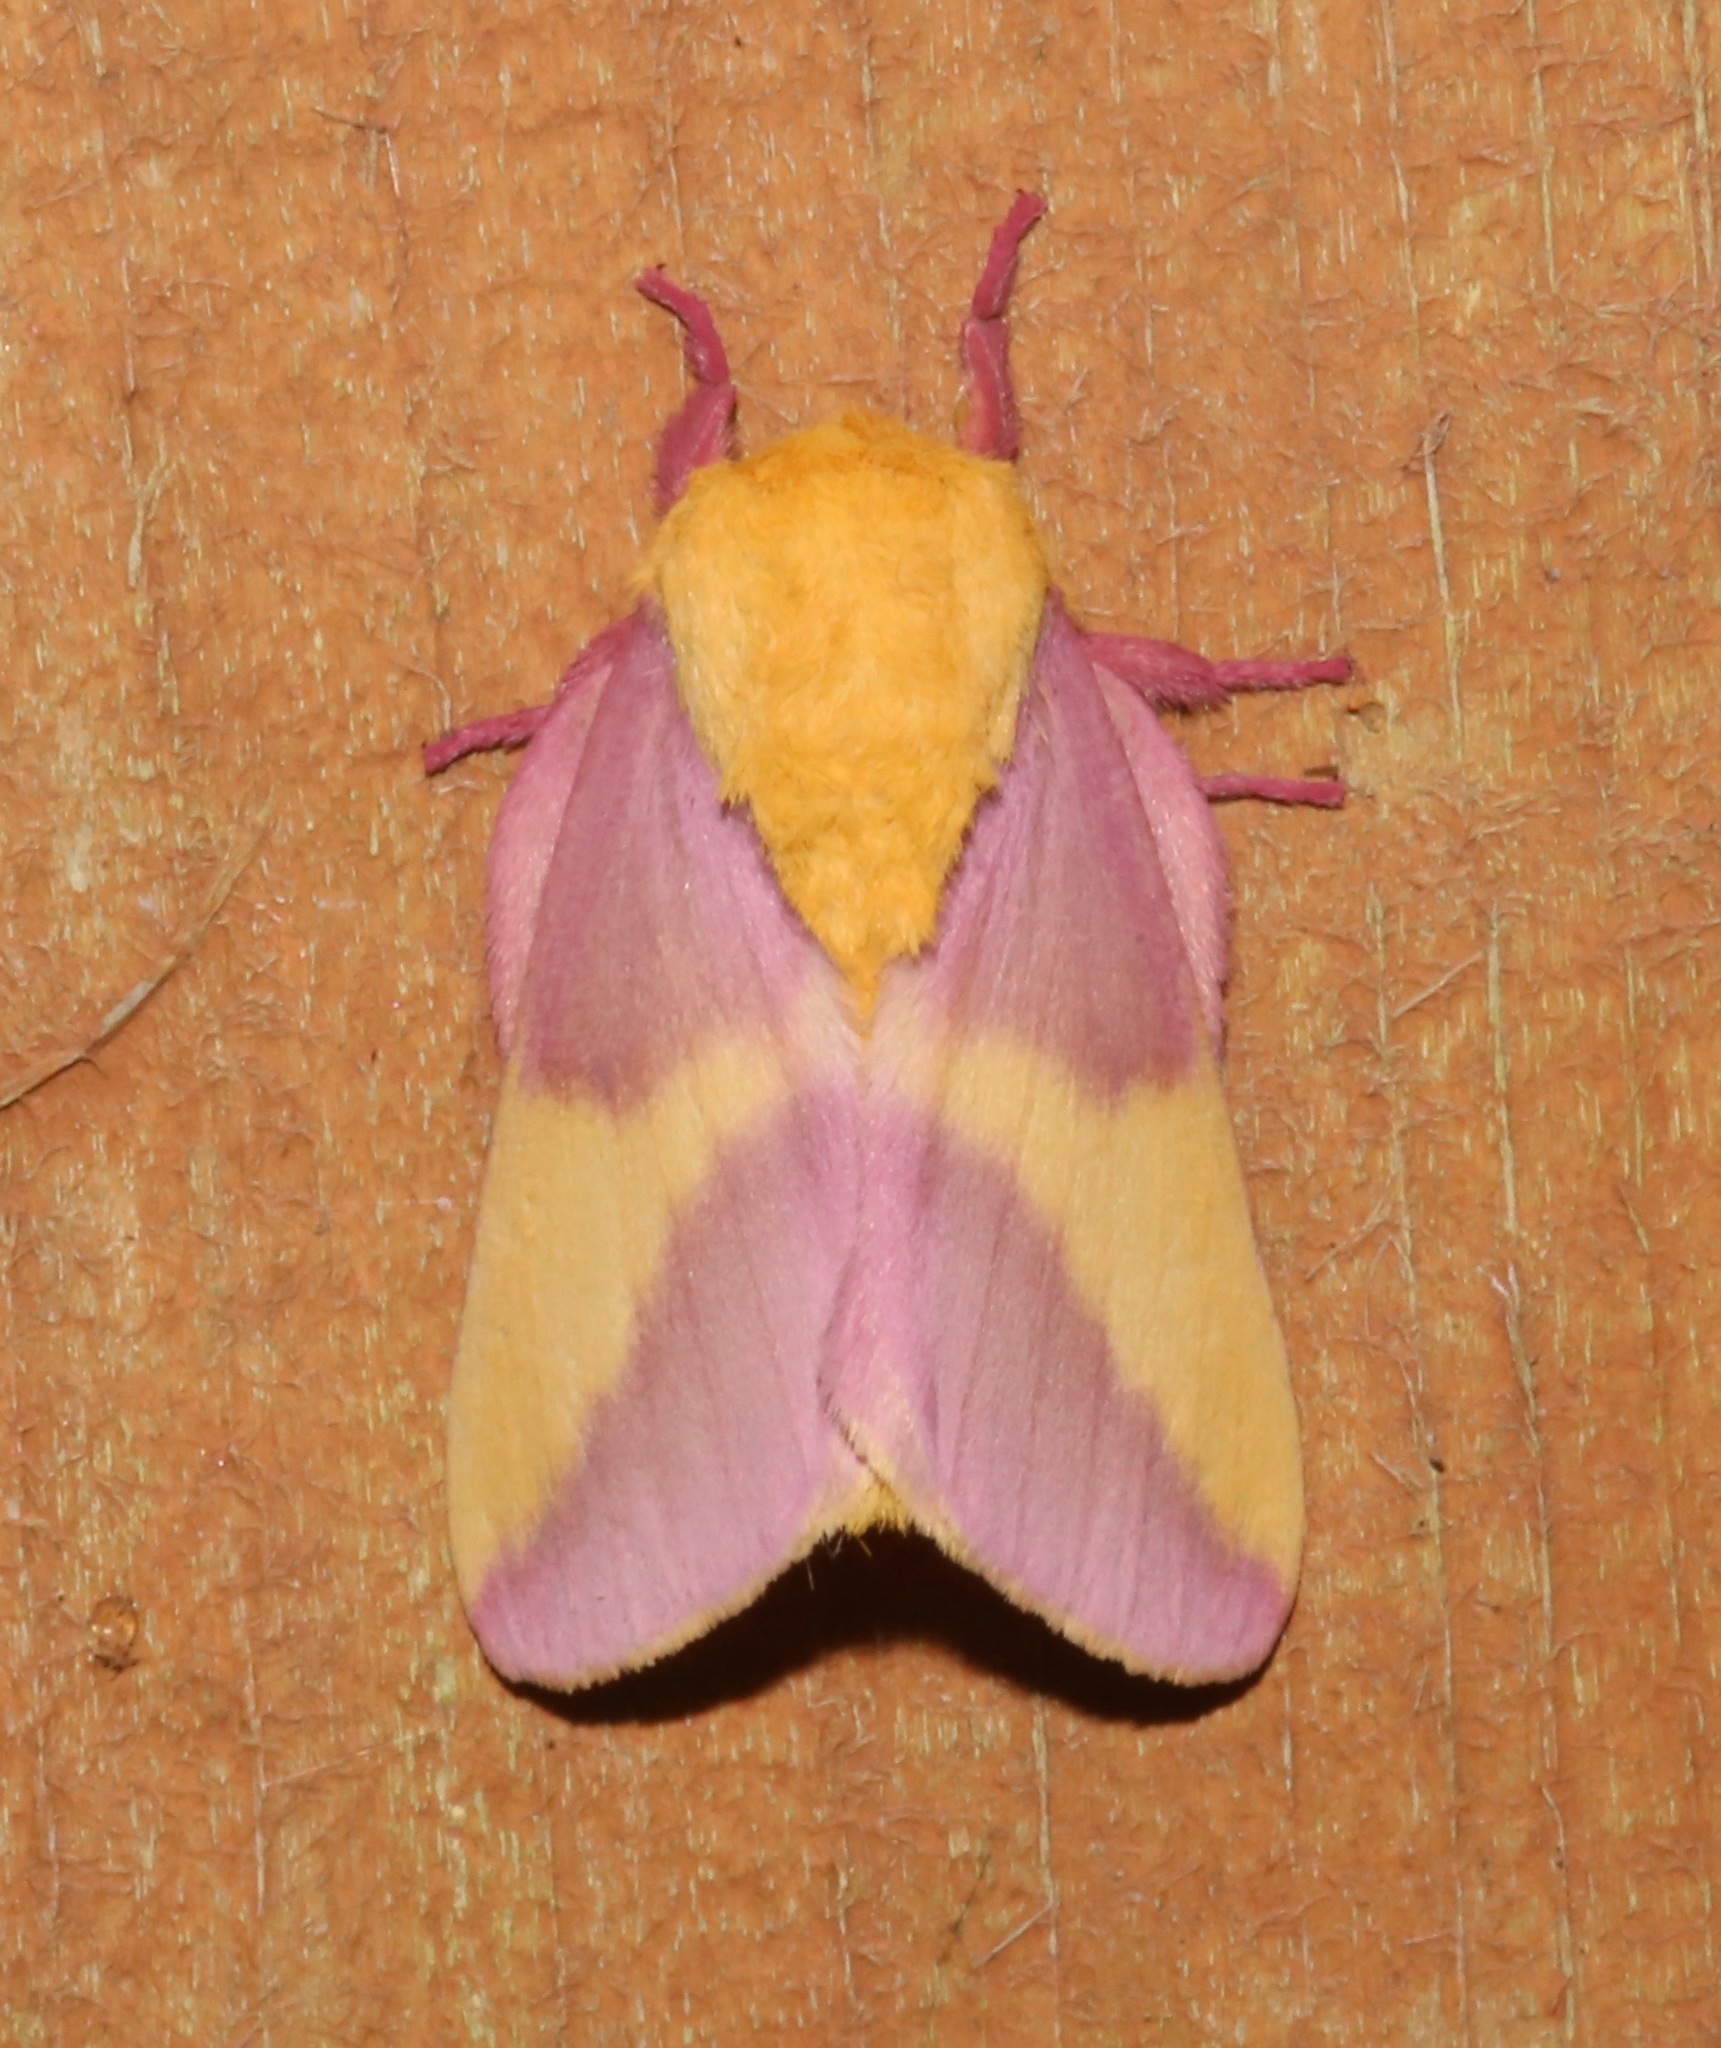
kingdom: Animalia
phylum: Arthropoda
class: Insecta
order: Lepidoptera
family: Saturniidae
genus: Dryocampa
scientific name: Dryocampa rubicunda
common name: Rosy maple moth
